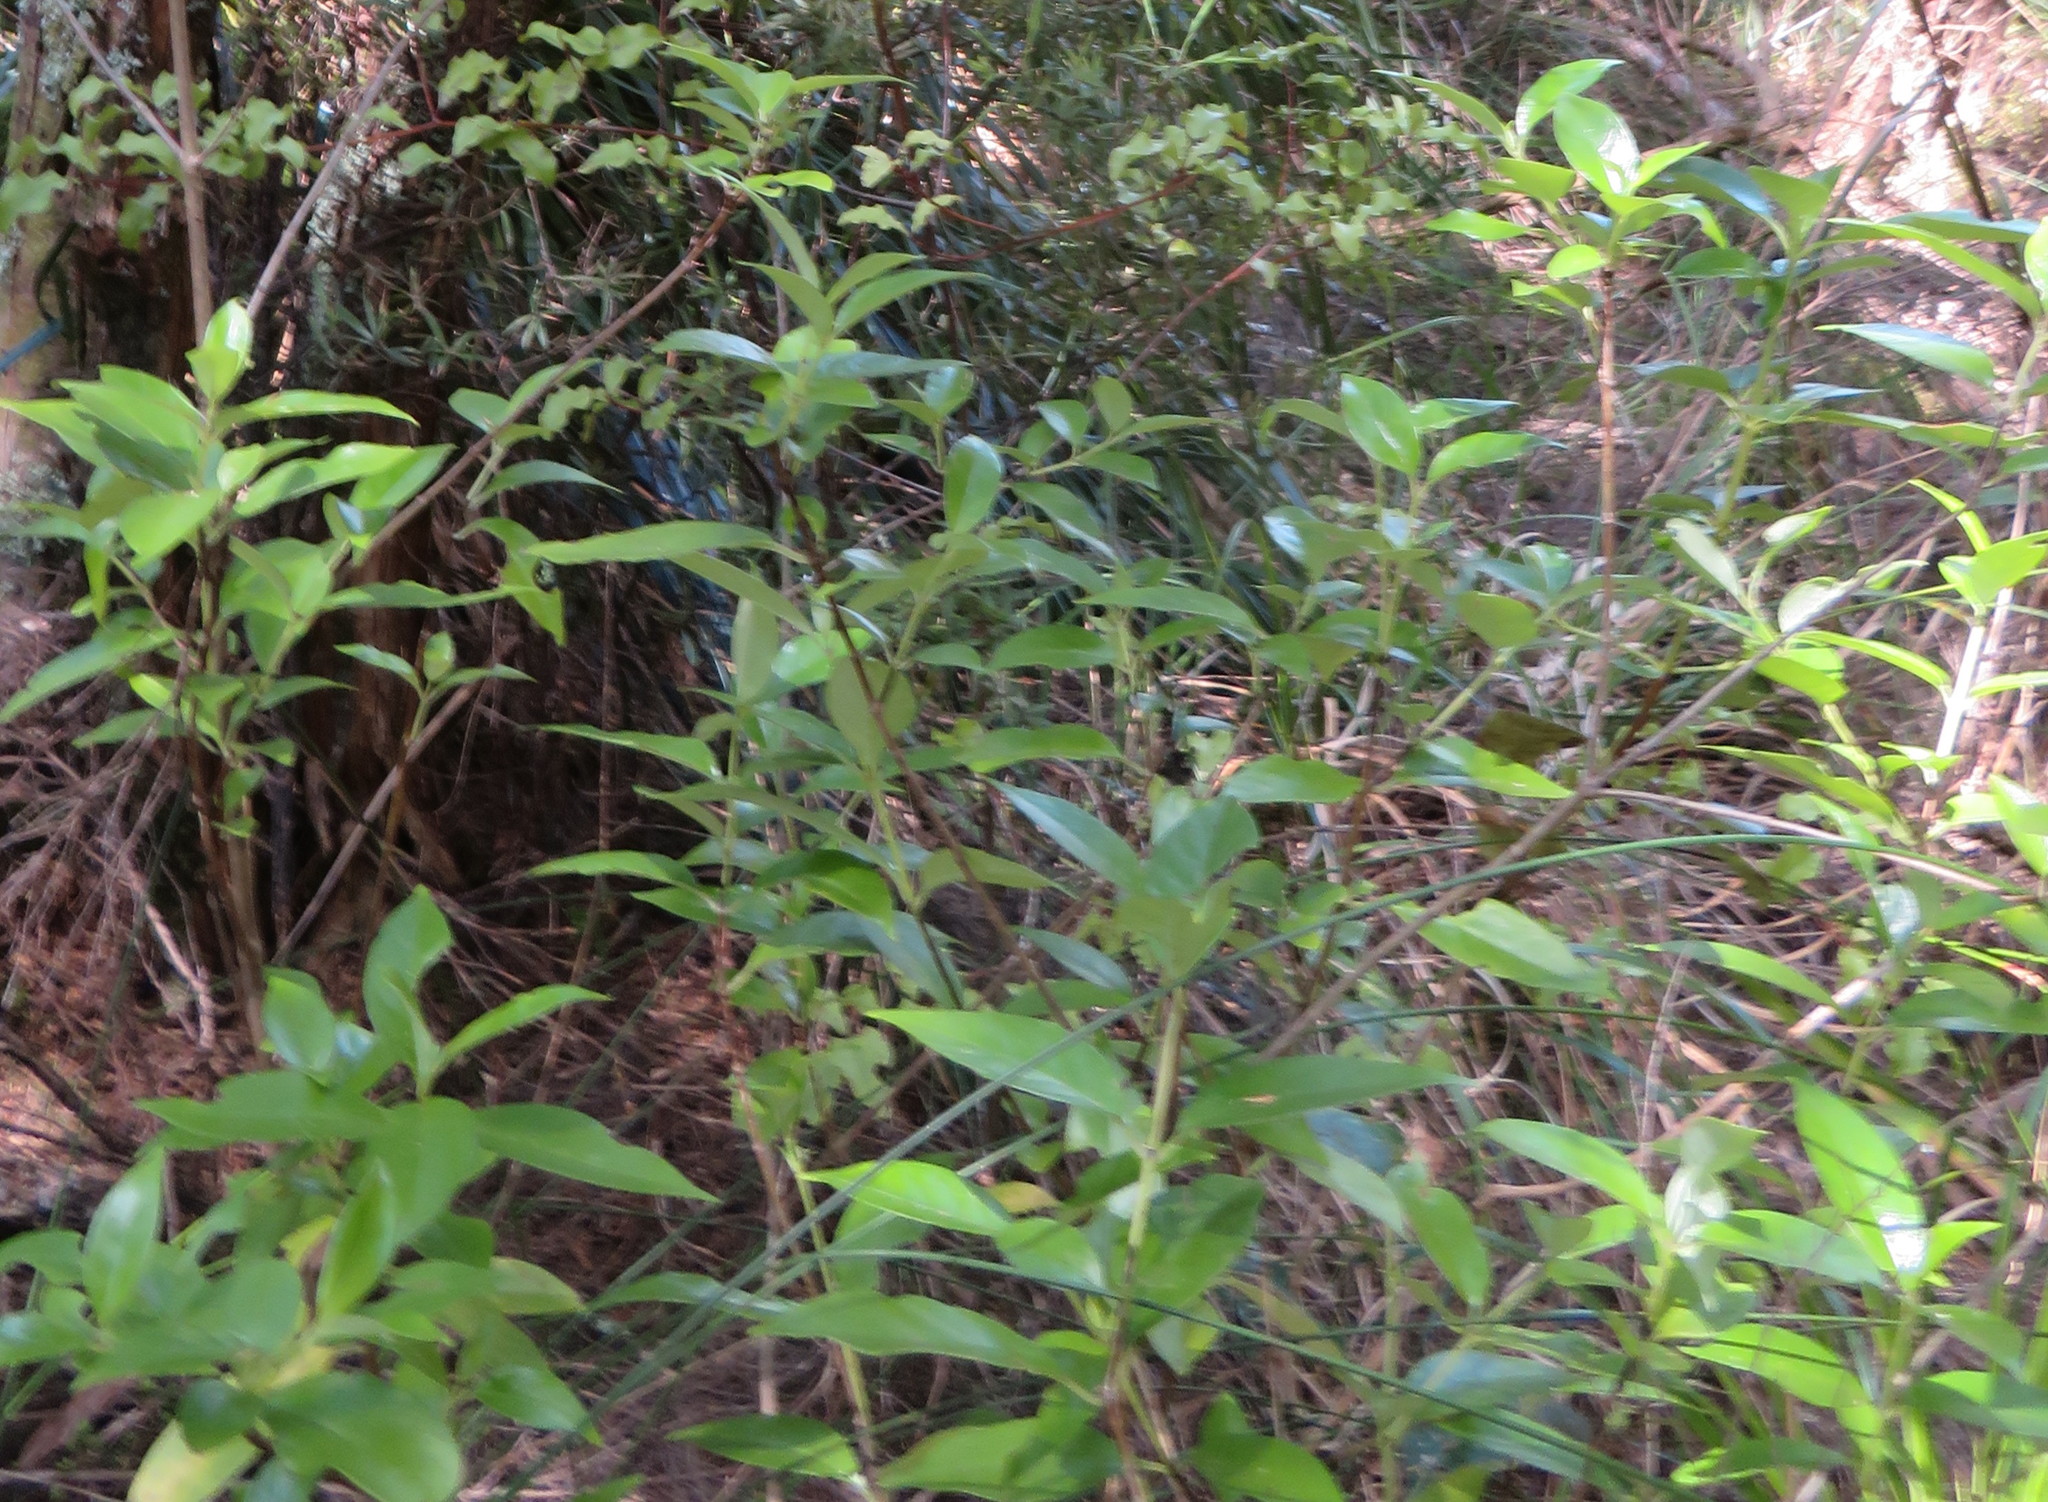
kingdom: Plantae
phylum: Tracheophyta
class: Magnoliopsida
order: Gentianales
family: Loganiaceae
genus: Geniostoma
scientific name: Geniostoma ligustrifolium
